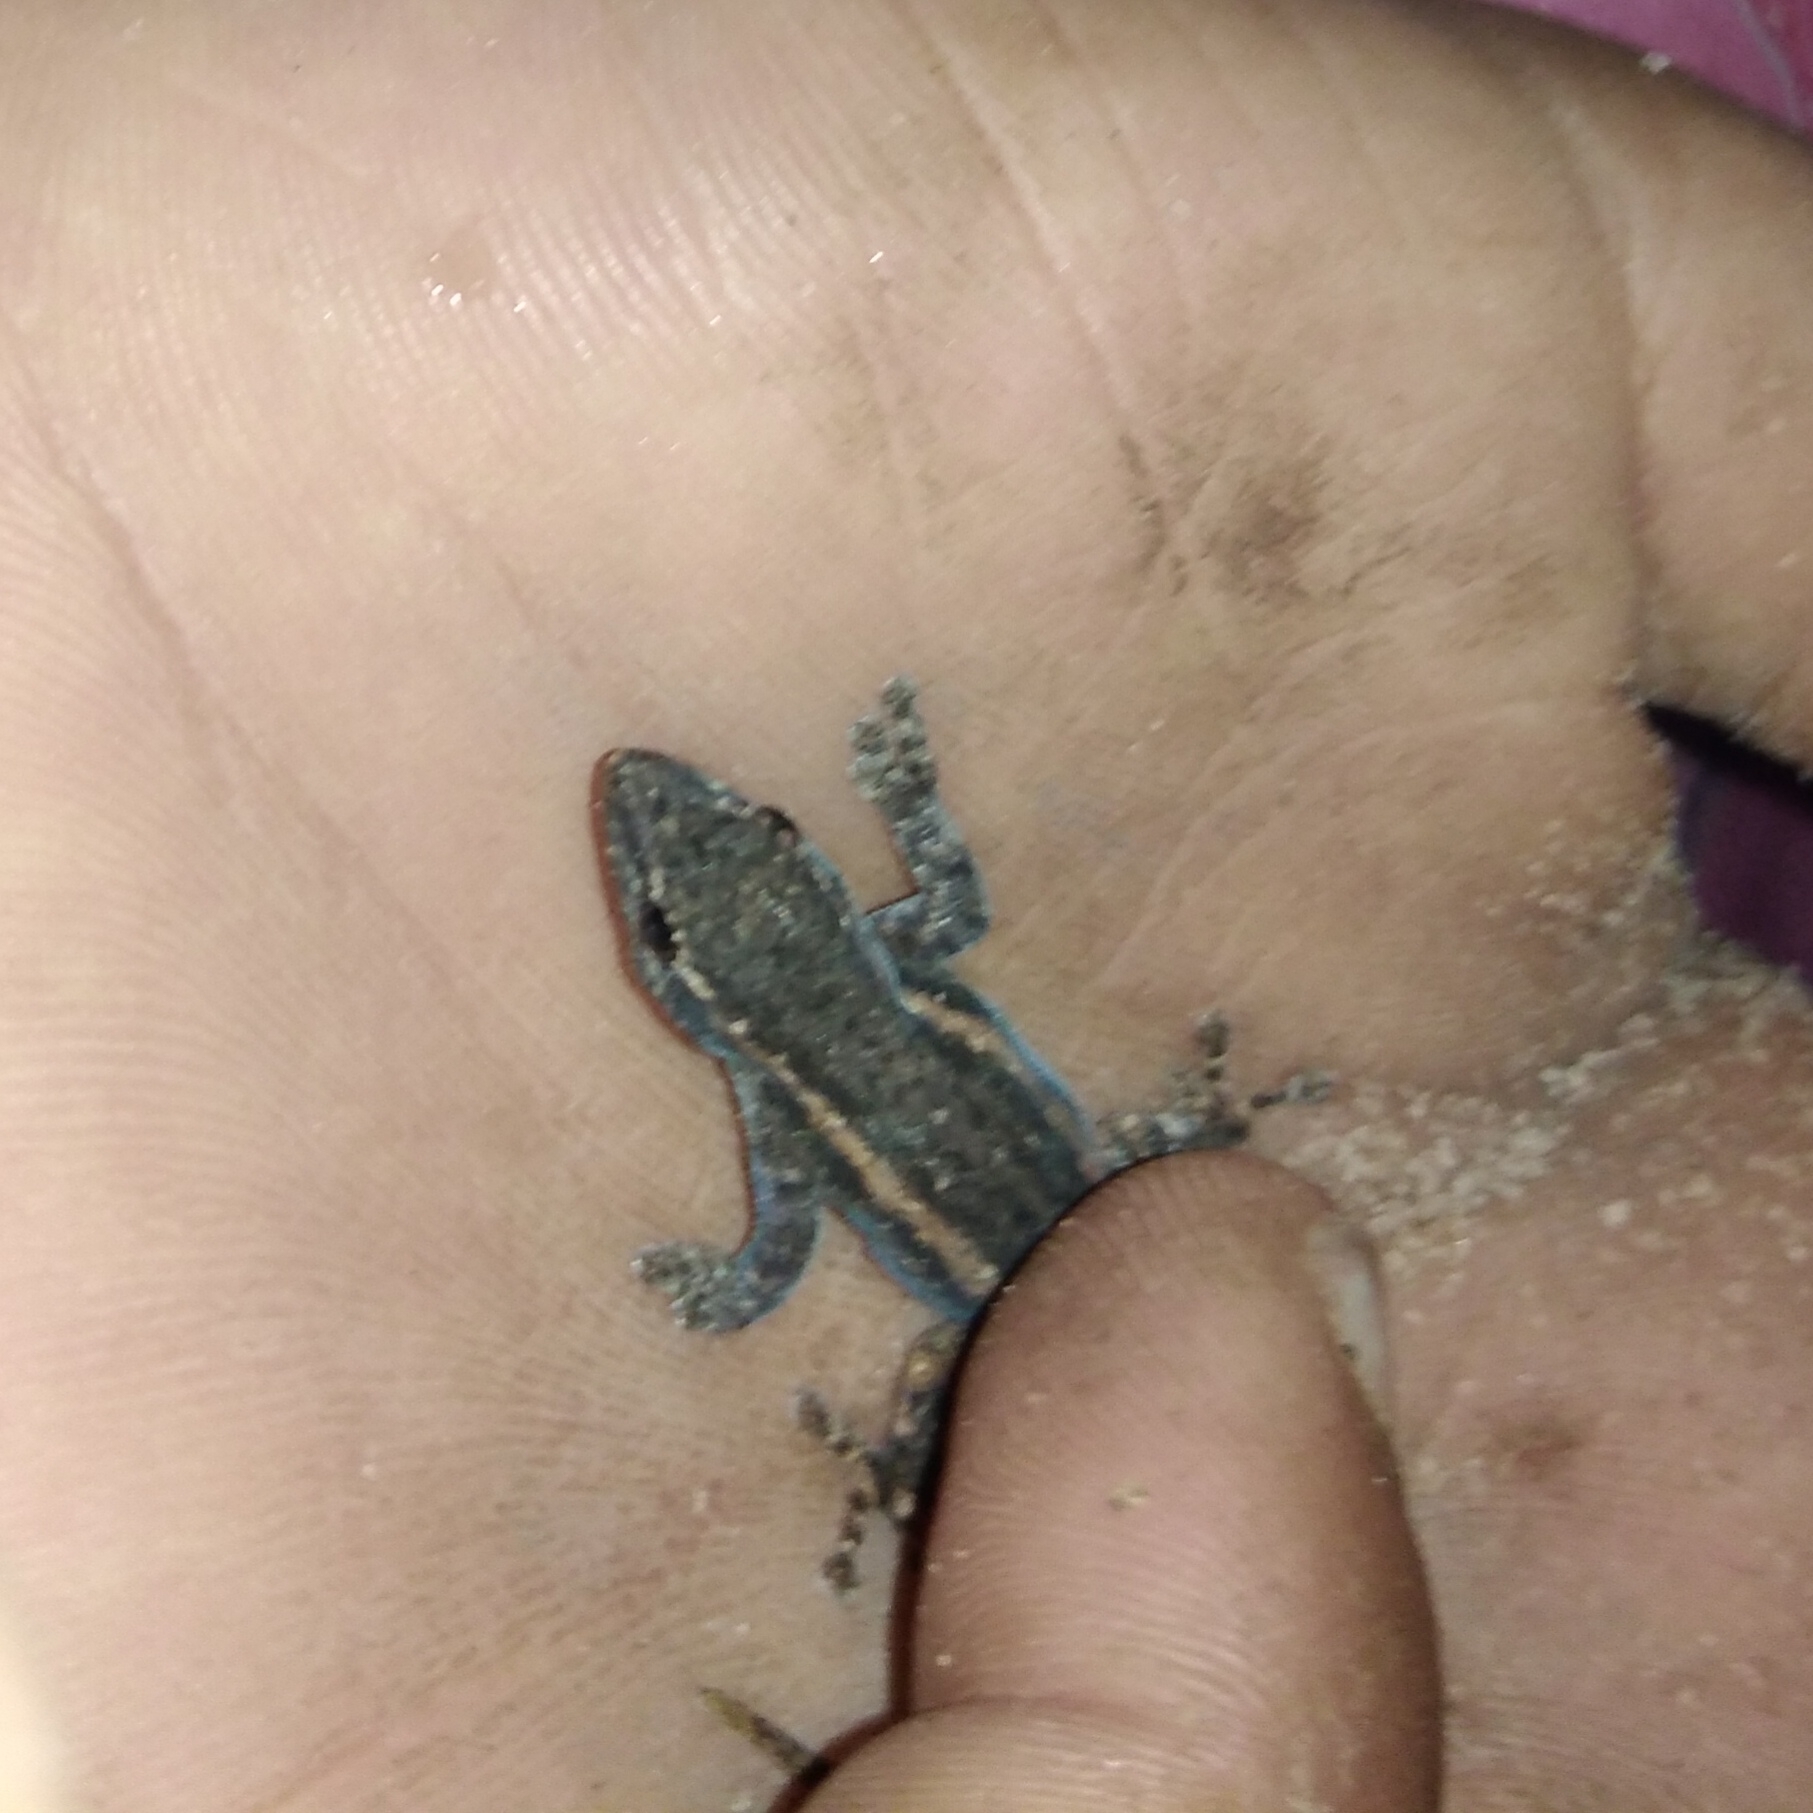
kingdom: Animalia
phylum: Chordata
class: Squamata
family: Gekkonidae
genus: Lygodactylus
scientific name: Lygodactylus capensis
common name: Cape dwarf gecko
